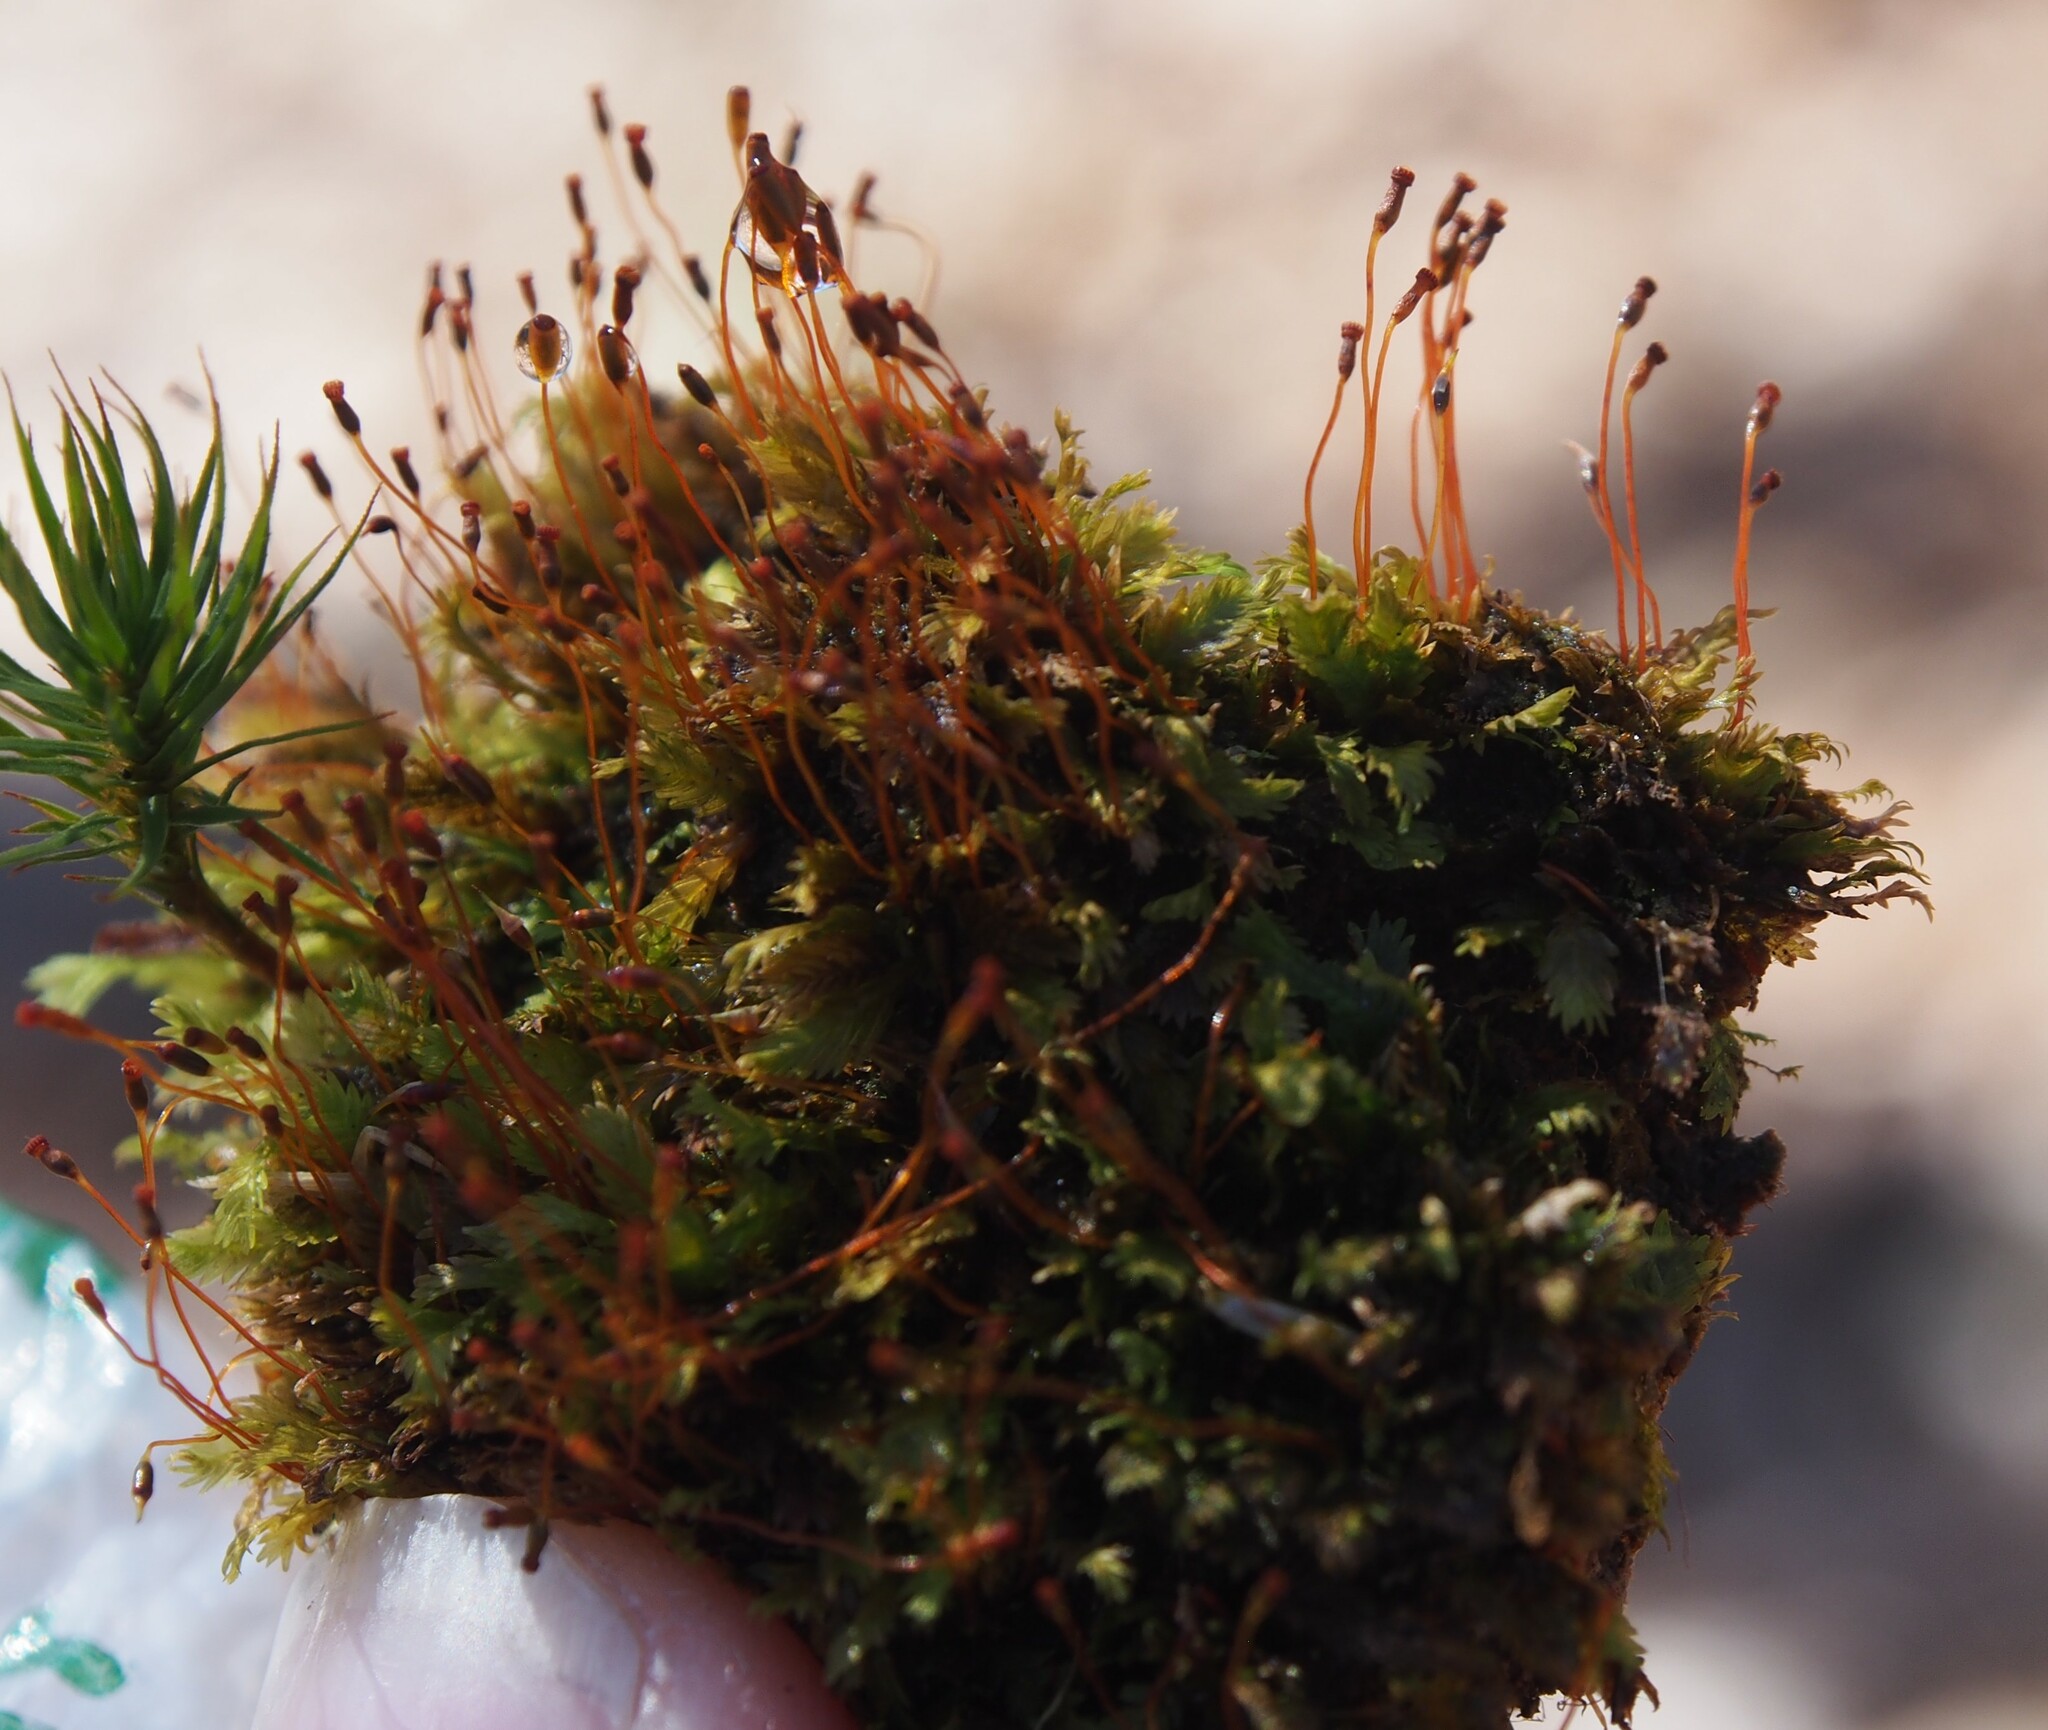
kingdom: Plantae
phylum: Bryophyta
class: Bryopsida
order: Dicranales
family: Fissidentaceae
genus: Fissidens
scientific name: Fissidens adianthoides
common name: Maidenhair pocket moss
